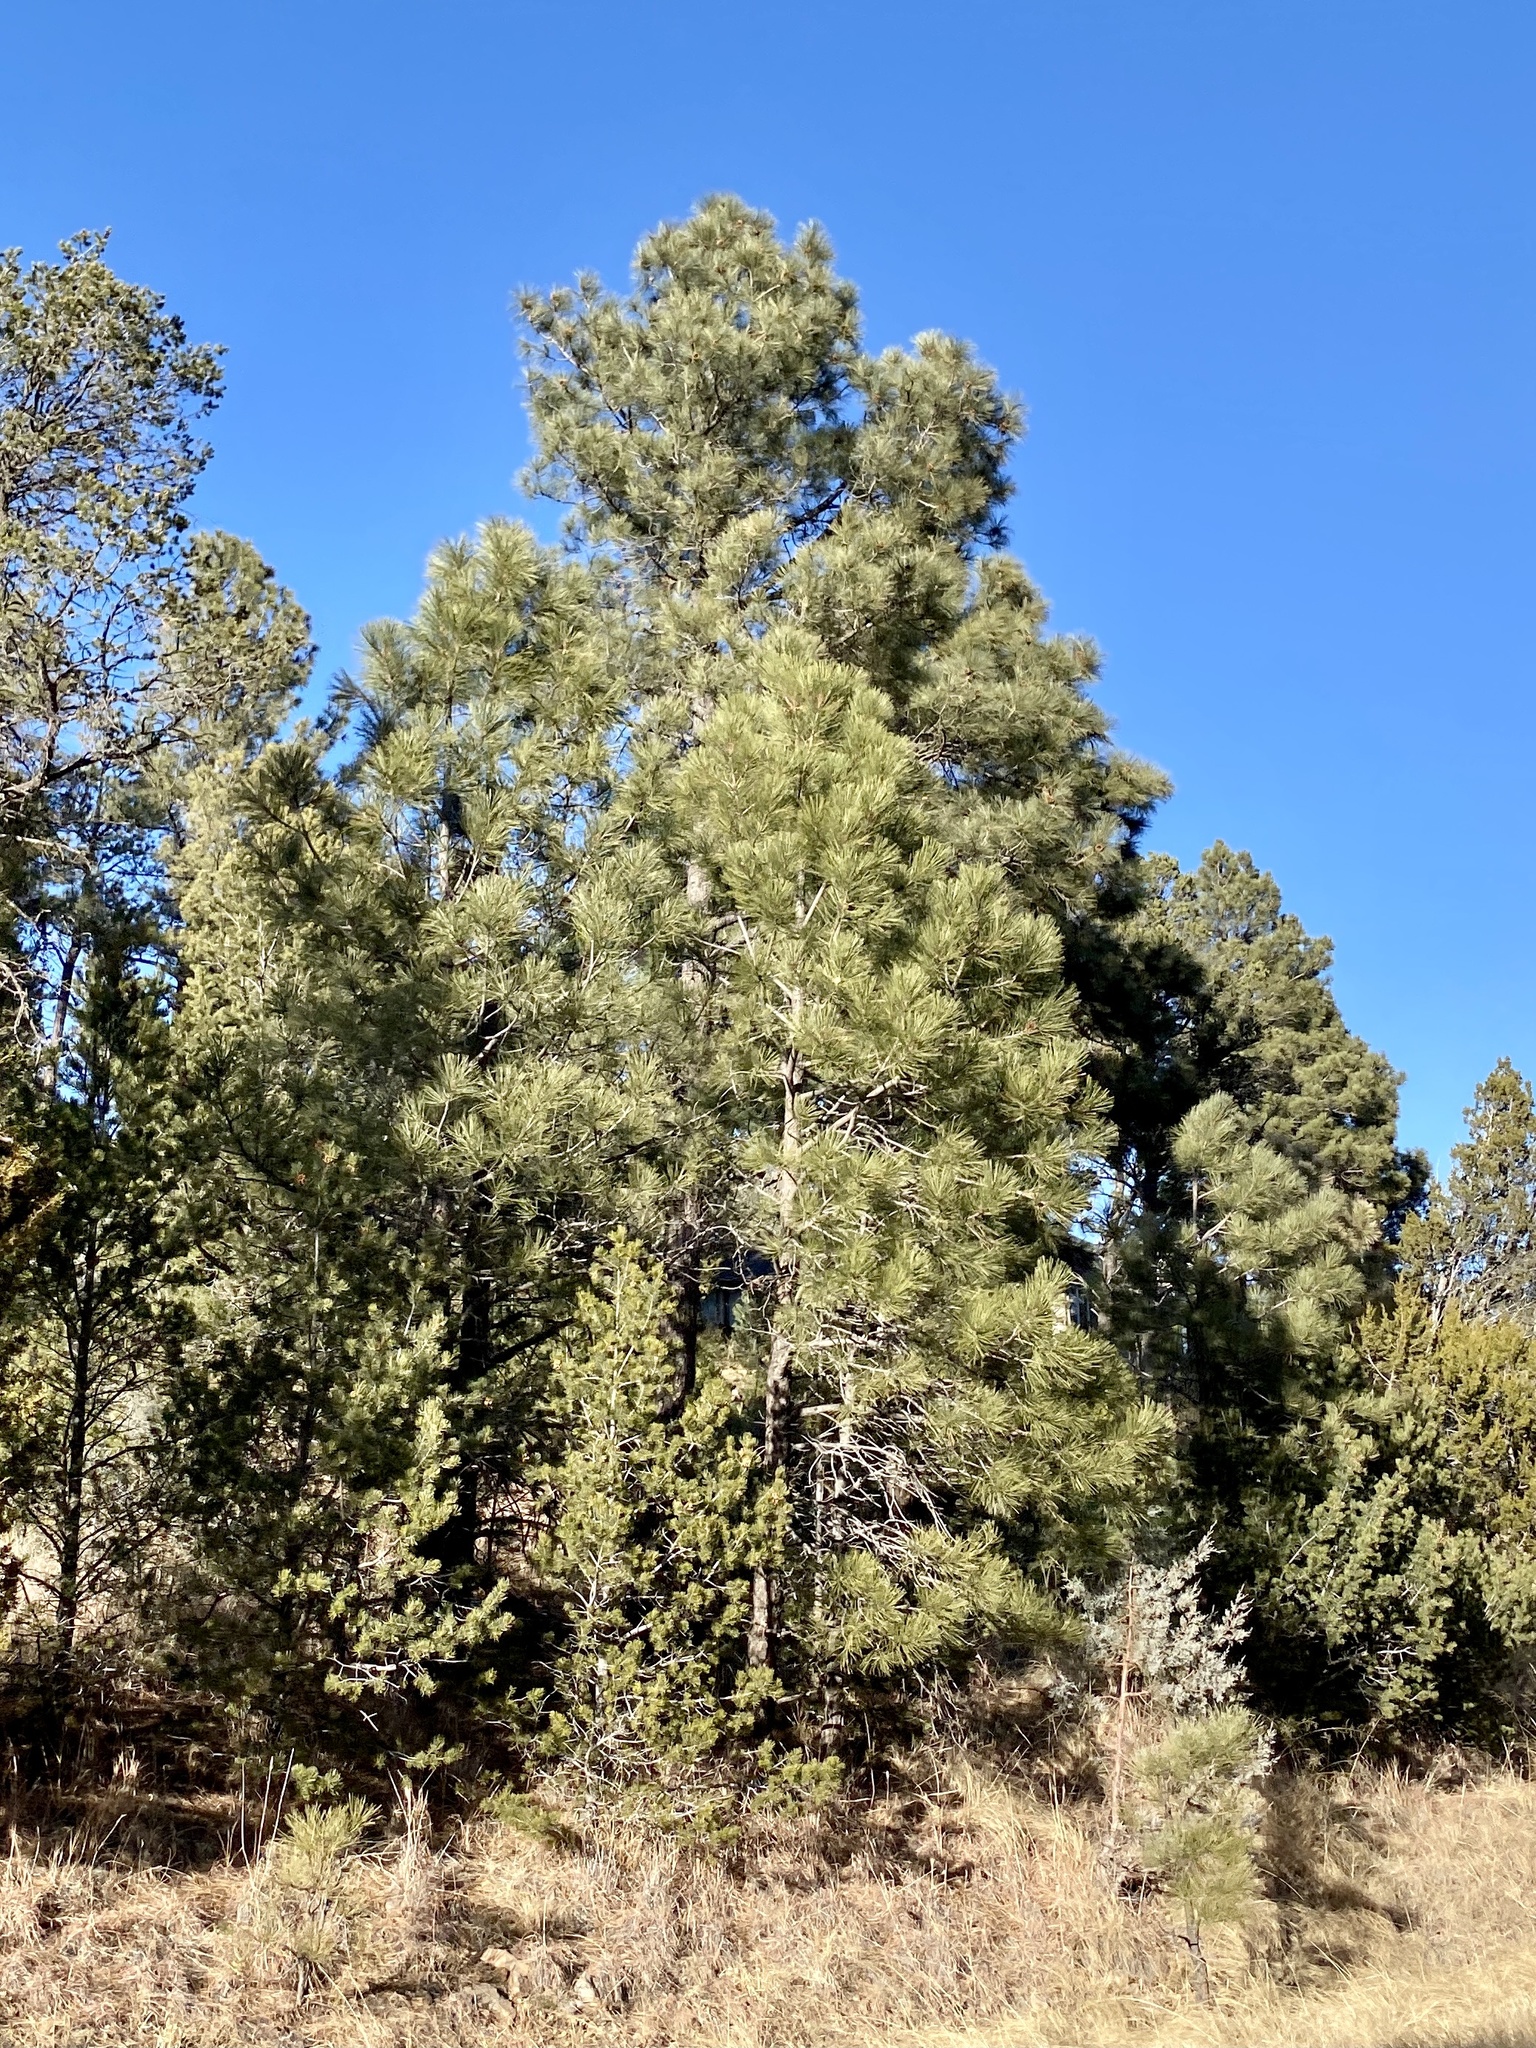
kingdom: Plantae
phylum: Tracheophyta
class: Pinopsida
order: Pinales
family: Pinaceae
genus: Pinus
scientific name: Pinus ponderosa
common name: Western yellow-pine
